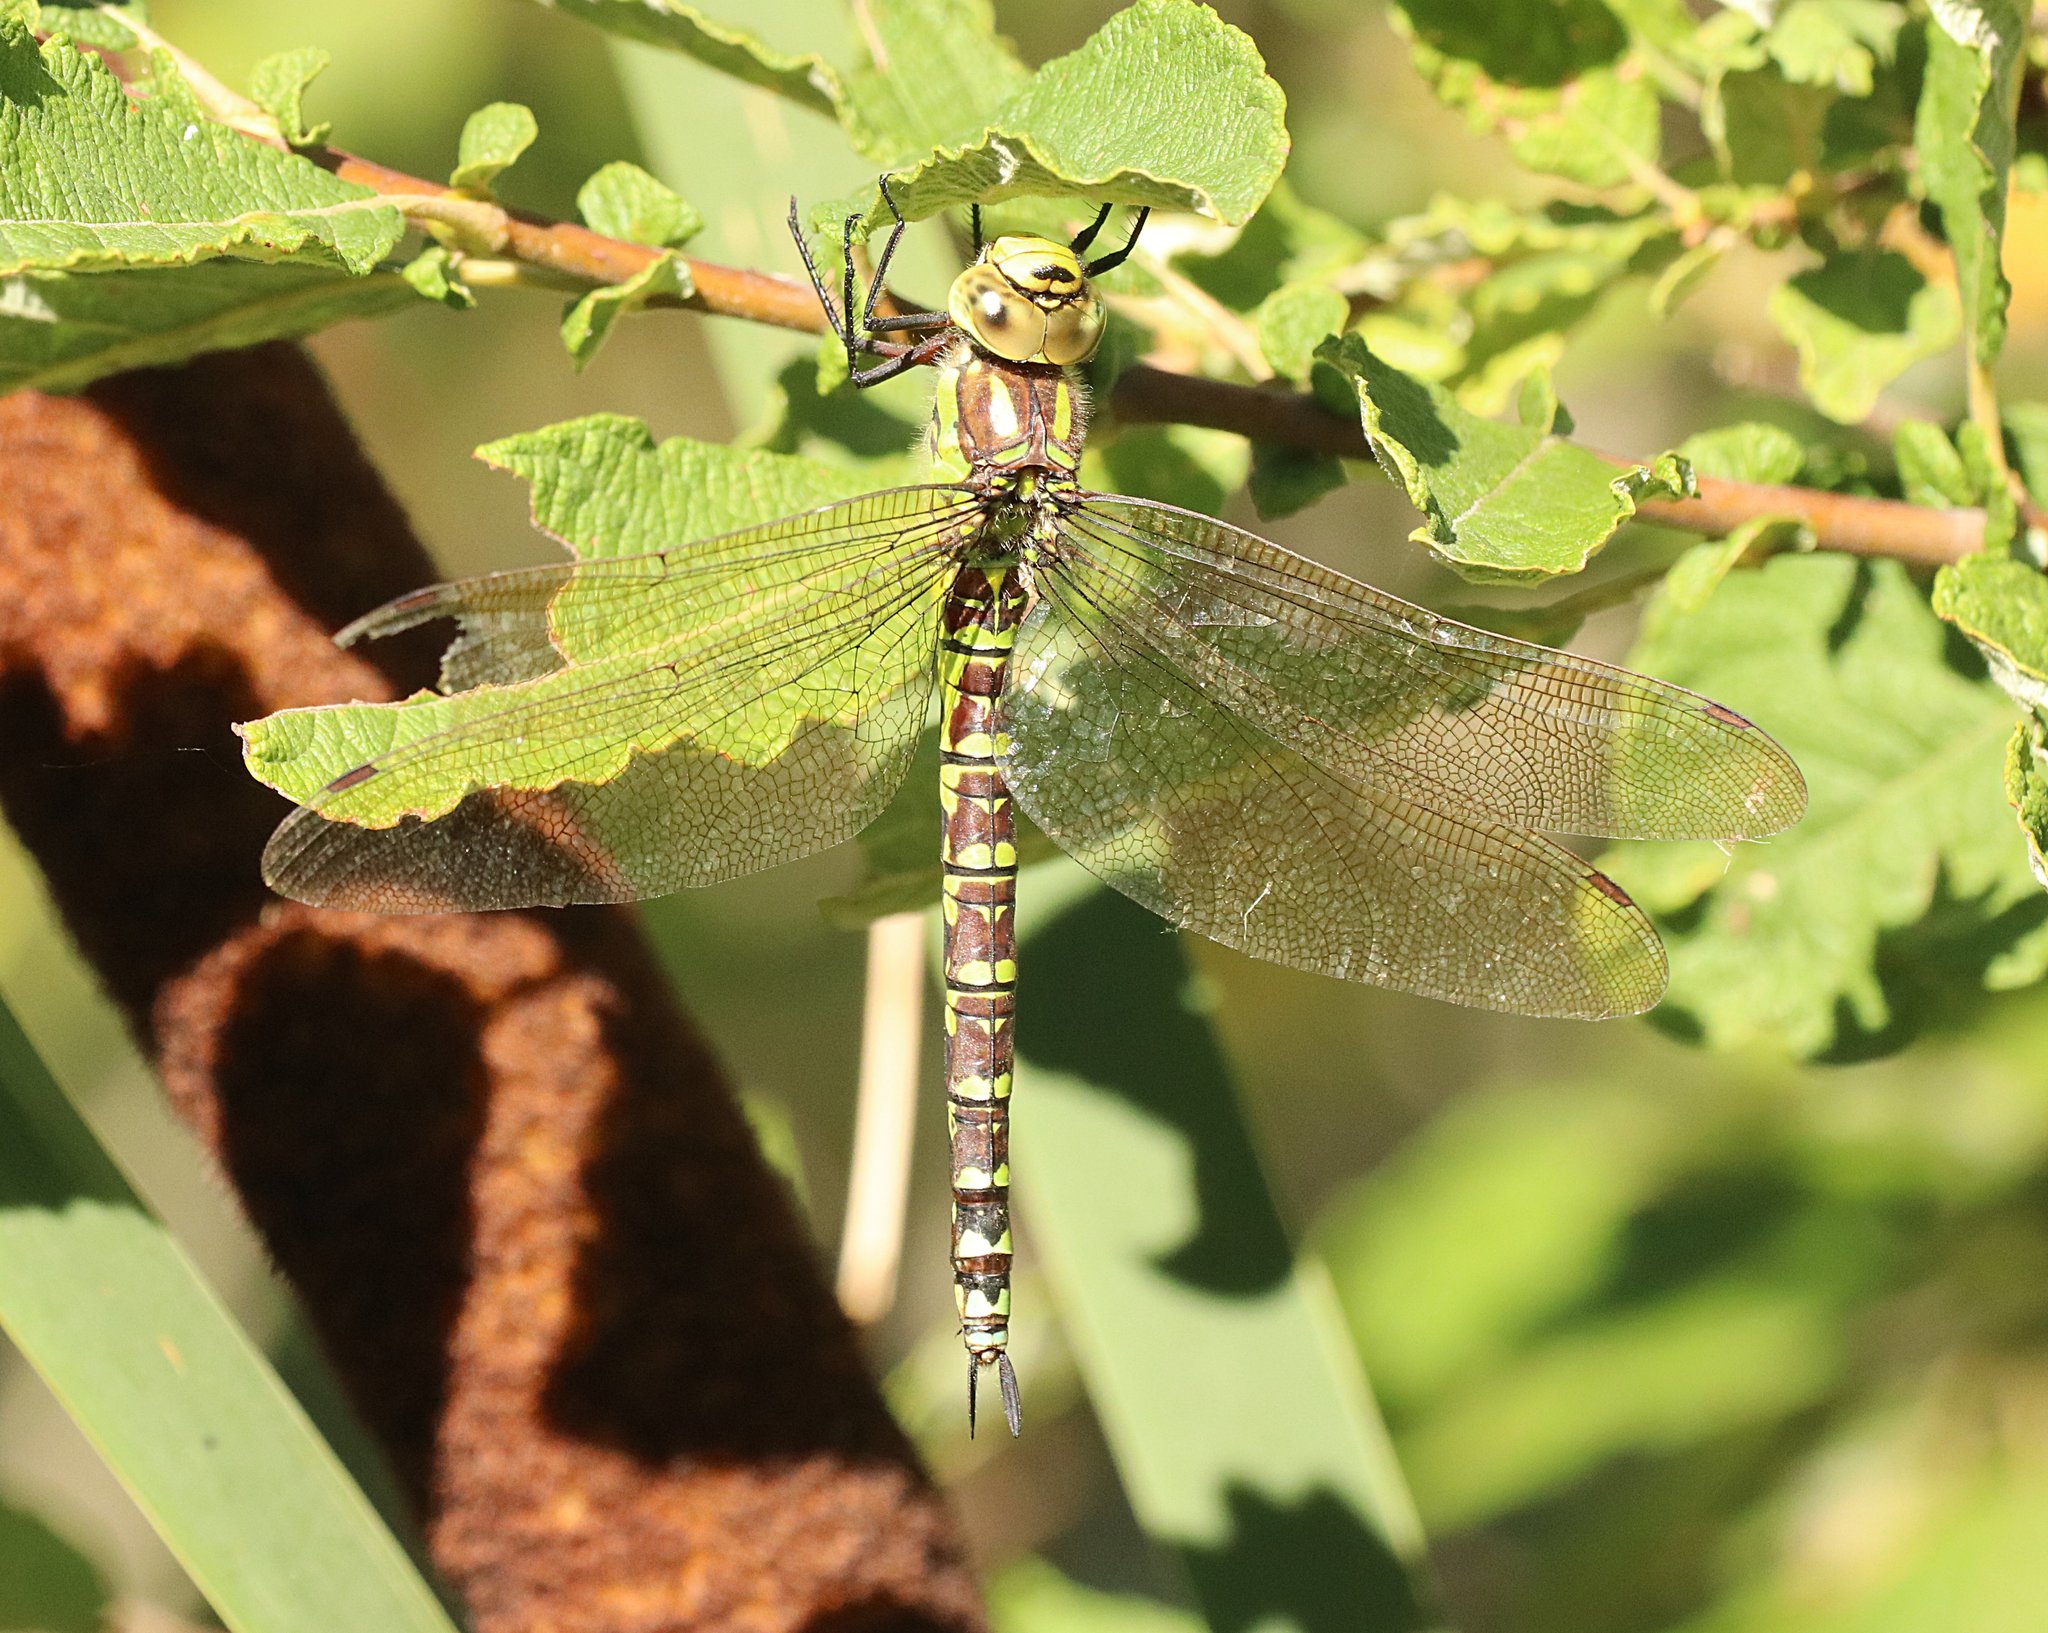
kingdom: Animalia
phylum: Arthropoda
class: Insecta
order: Odonata
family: Aeshnidae
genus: Aeshna
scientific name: Aeshna cyanea
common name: Southern hawker
